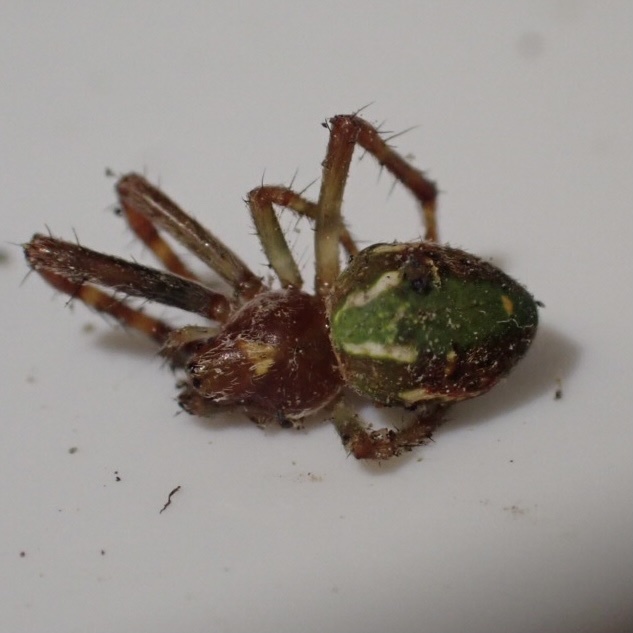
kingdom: Animalia
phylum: Arthropoda
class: Arachnida
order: Araneae
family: Araneidae
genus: Novaranea
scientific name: Novaranea queribunda
